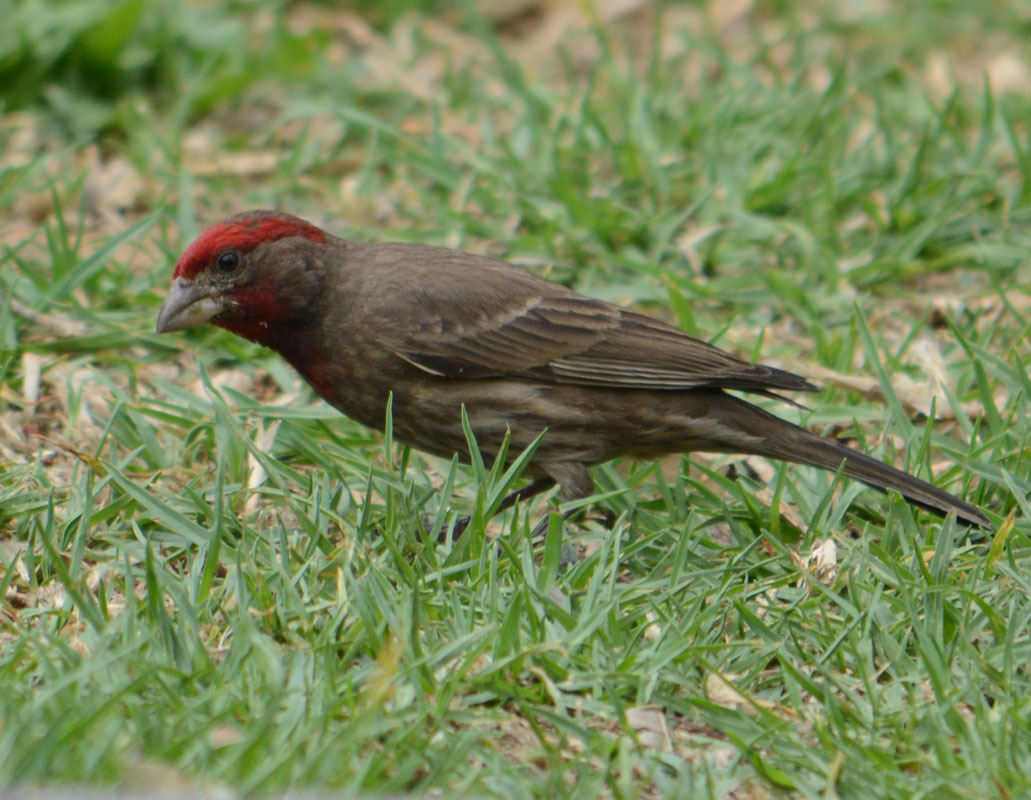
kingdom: Animalia
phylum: Chordata
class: Aves
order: Passeriformes
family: Fringillidae
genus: Haemorhous
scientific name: Haemorhous mexicanus
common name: House finch
